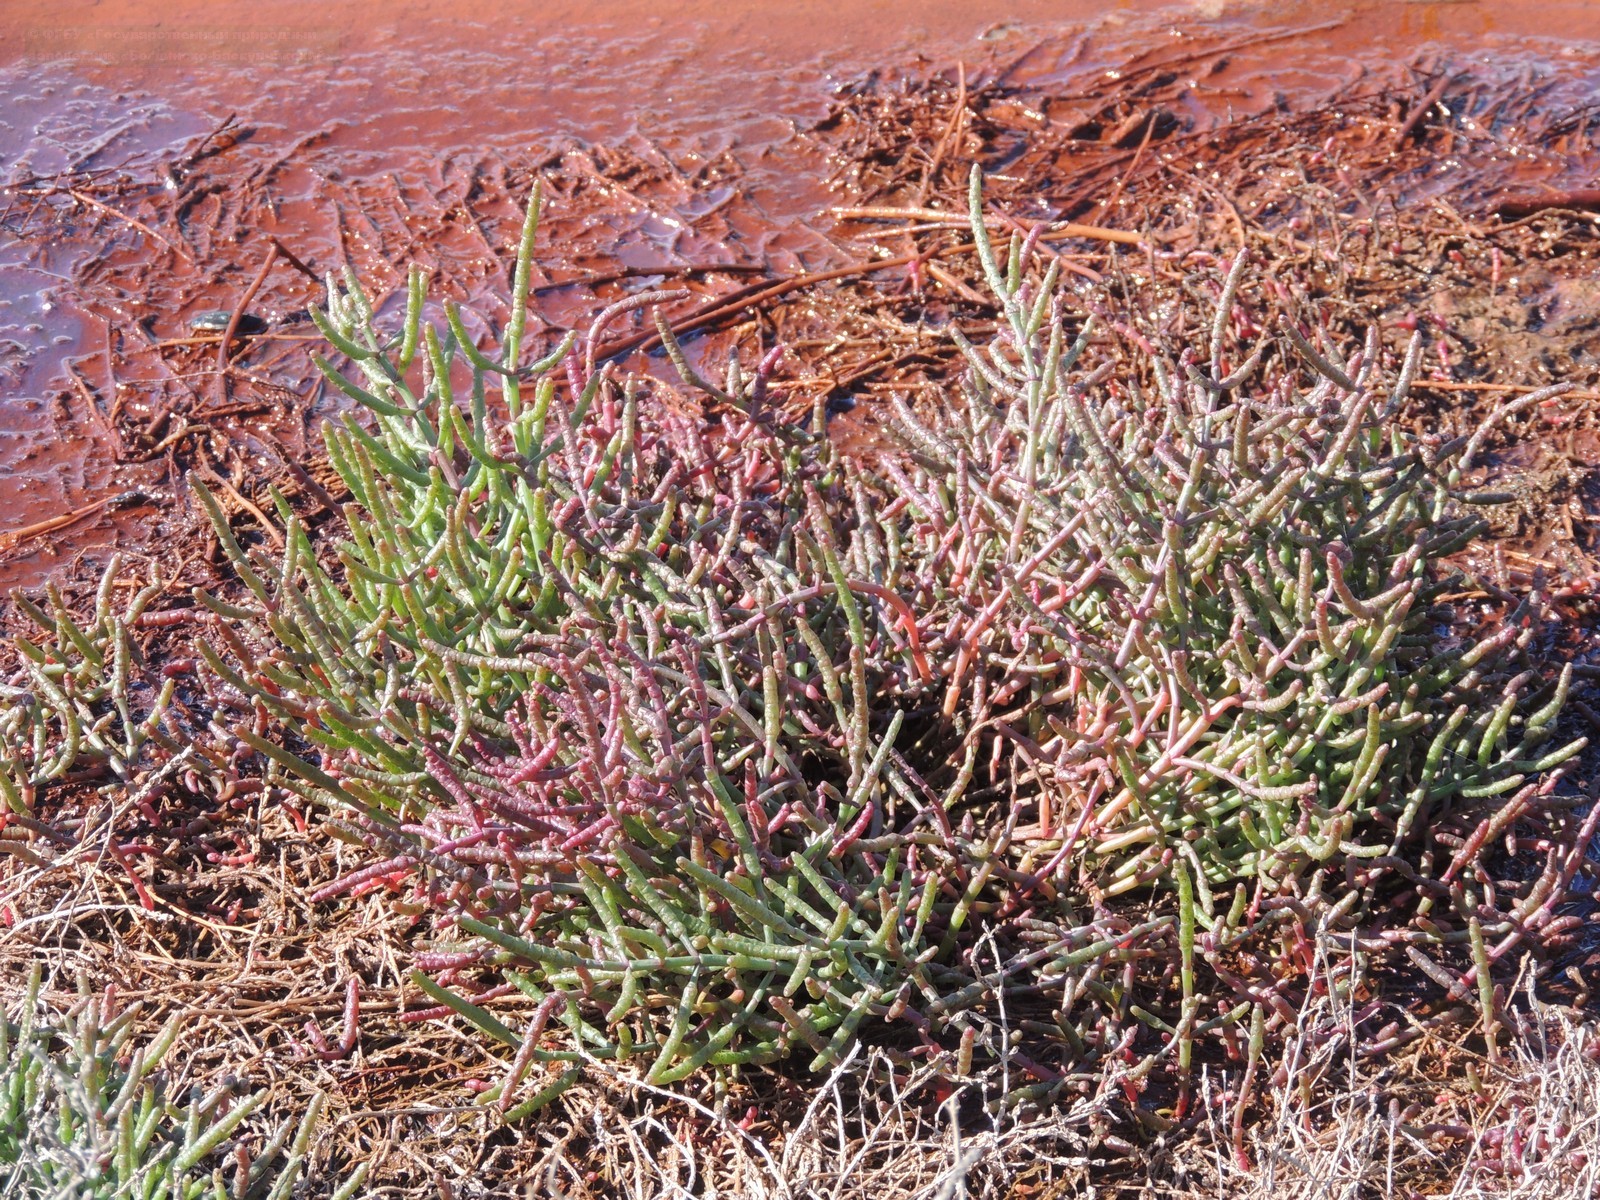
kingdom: Plantae
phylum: Tracheophyta
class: Magnoliopsida
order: Caryophyllales
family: Amaranthaceae
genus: Salicornia
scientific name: Salicornia perennans
